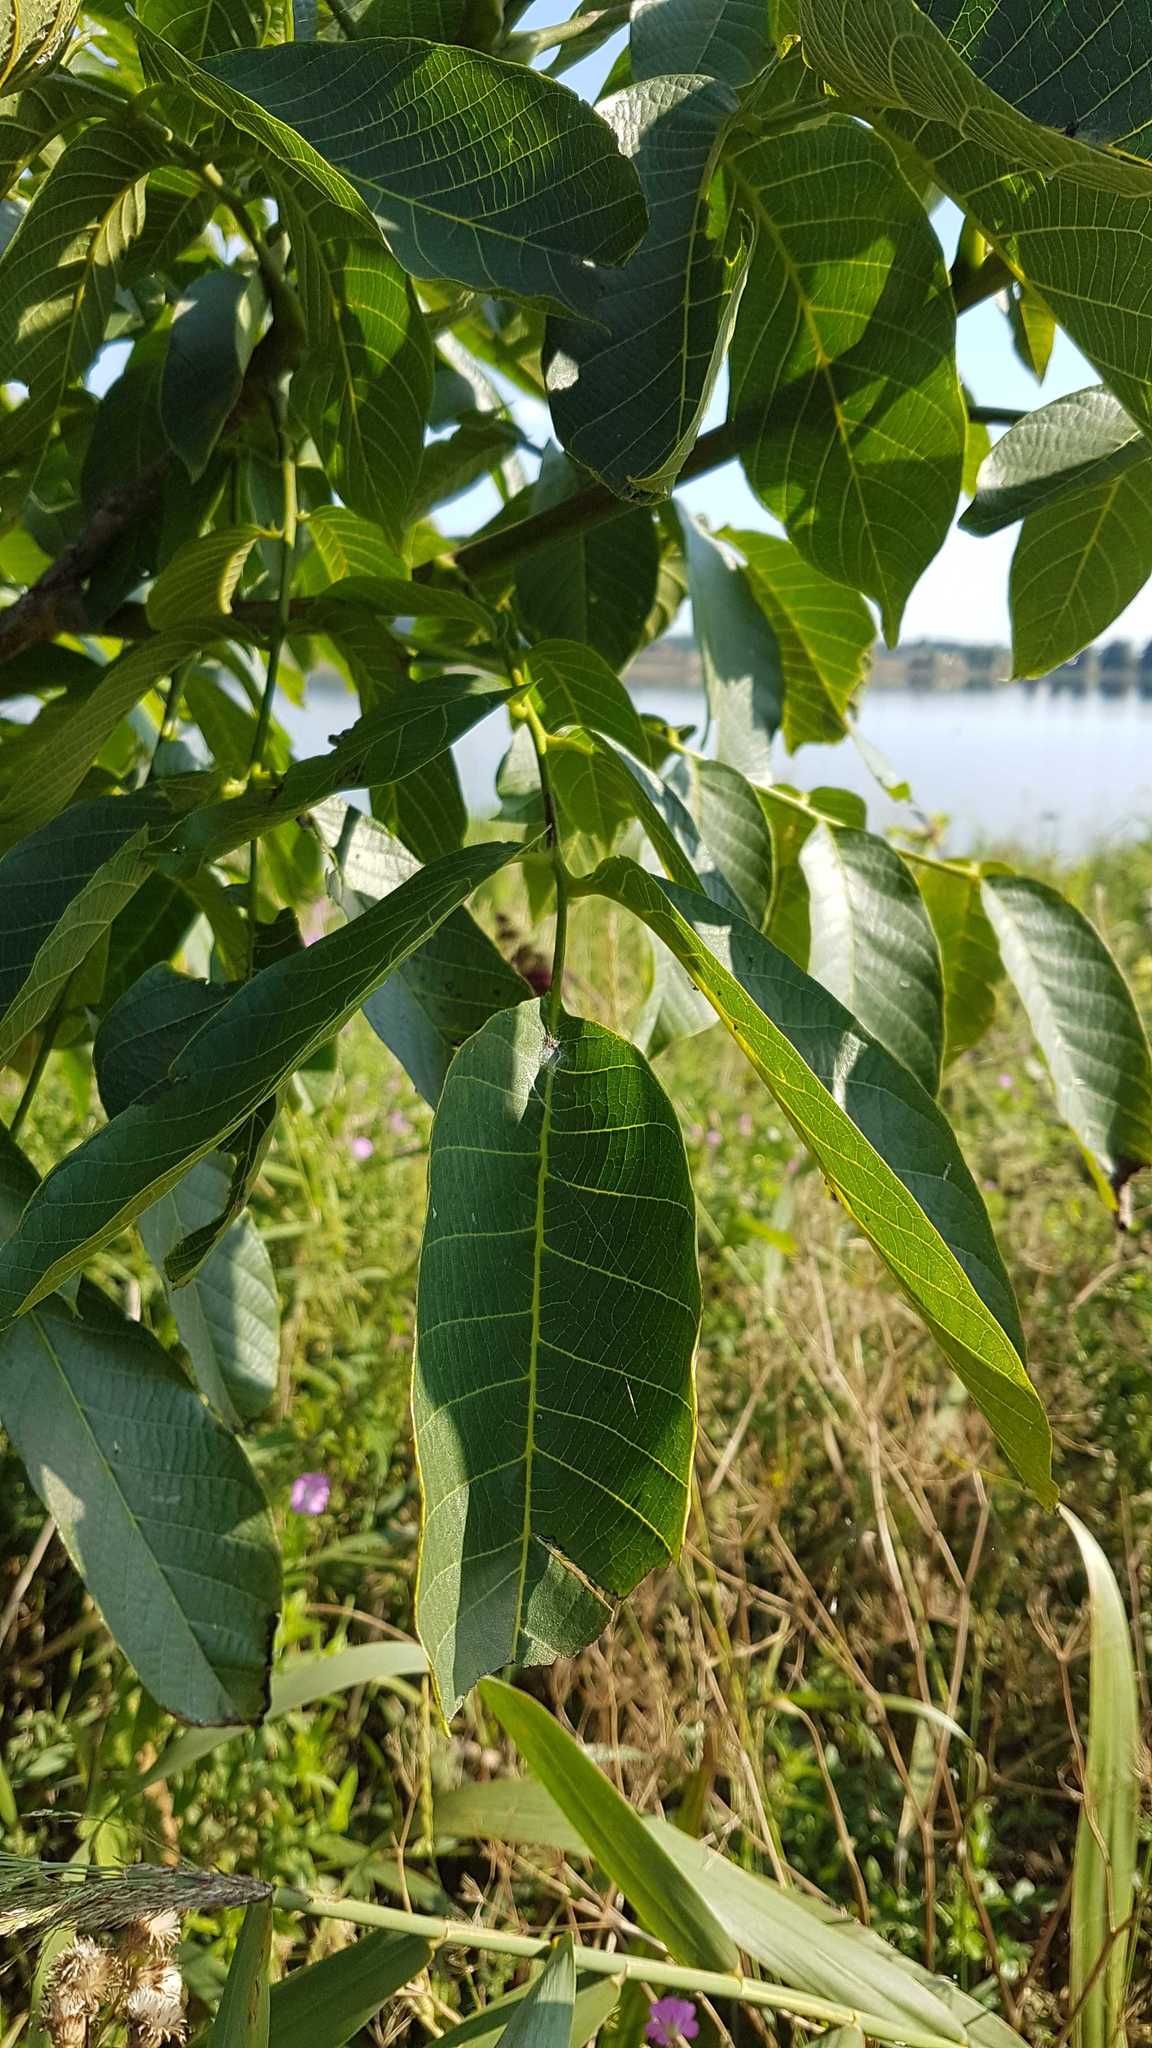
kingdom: Plantae
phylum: Tracheophyta
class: Magnoliopsida
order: Fagales
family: Juglandaceae
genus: Juglans
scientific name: Juglans regia
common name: Walnut
